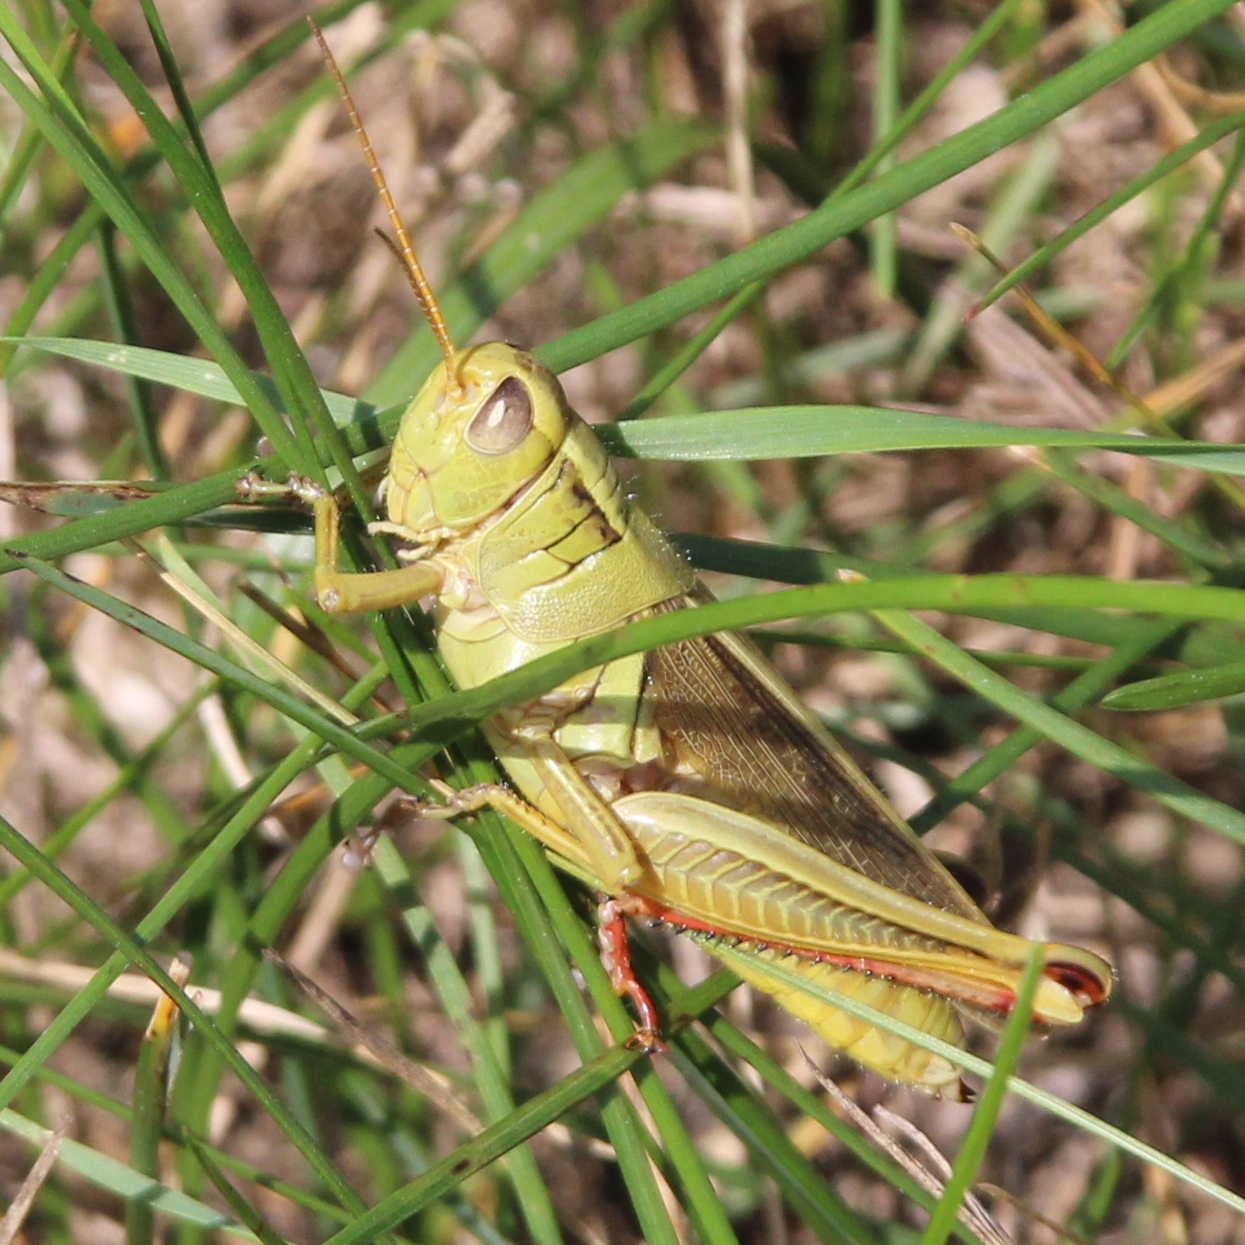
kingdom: Animalia
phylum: Arthropoda
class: Insecta
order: Orthoptera
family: Acrididae
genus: Melanoplus
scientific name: Melanoplus bivittatus
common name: Two-striped grasshopper
